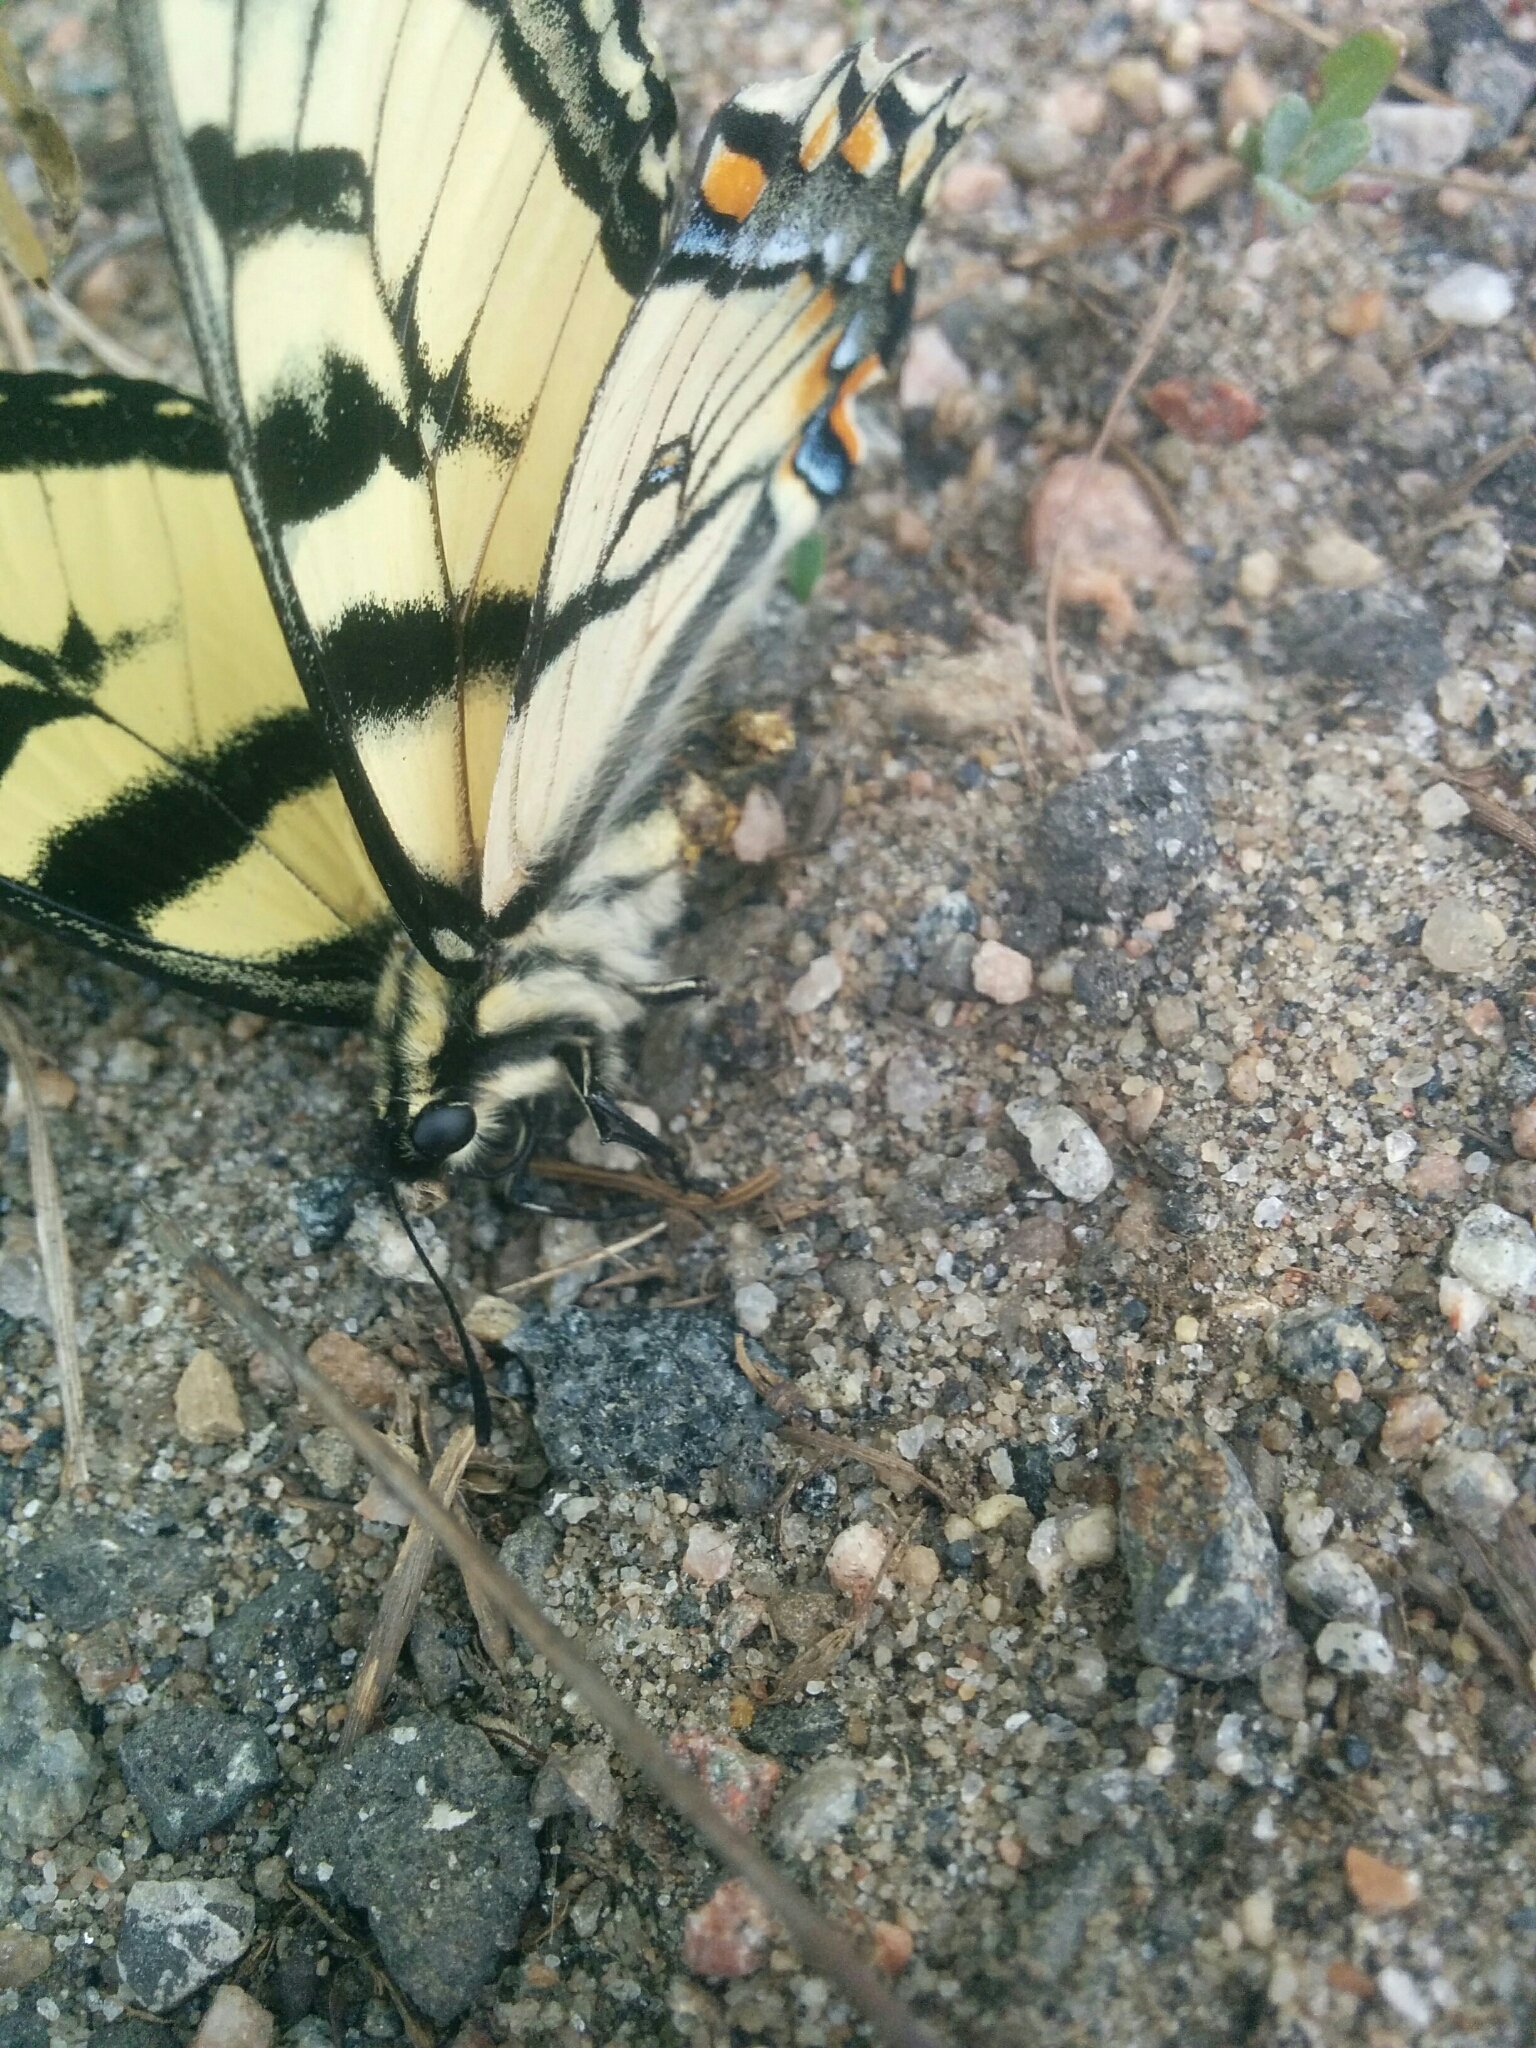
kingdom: Animalia
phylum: Arthropoda
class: Insecta
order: Lepidoptera
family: Papilionidae
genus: Papilio
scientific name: Papilio canadensis
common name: Canadian tiger swallowtail
